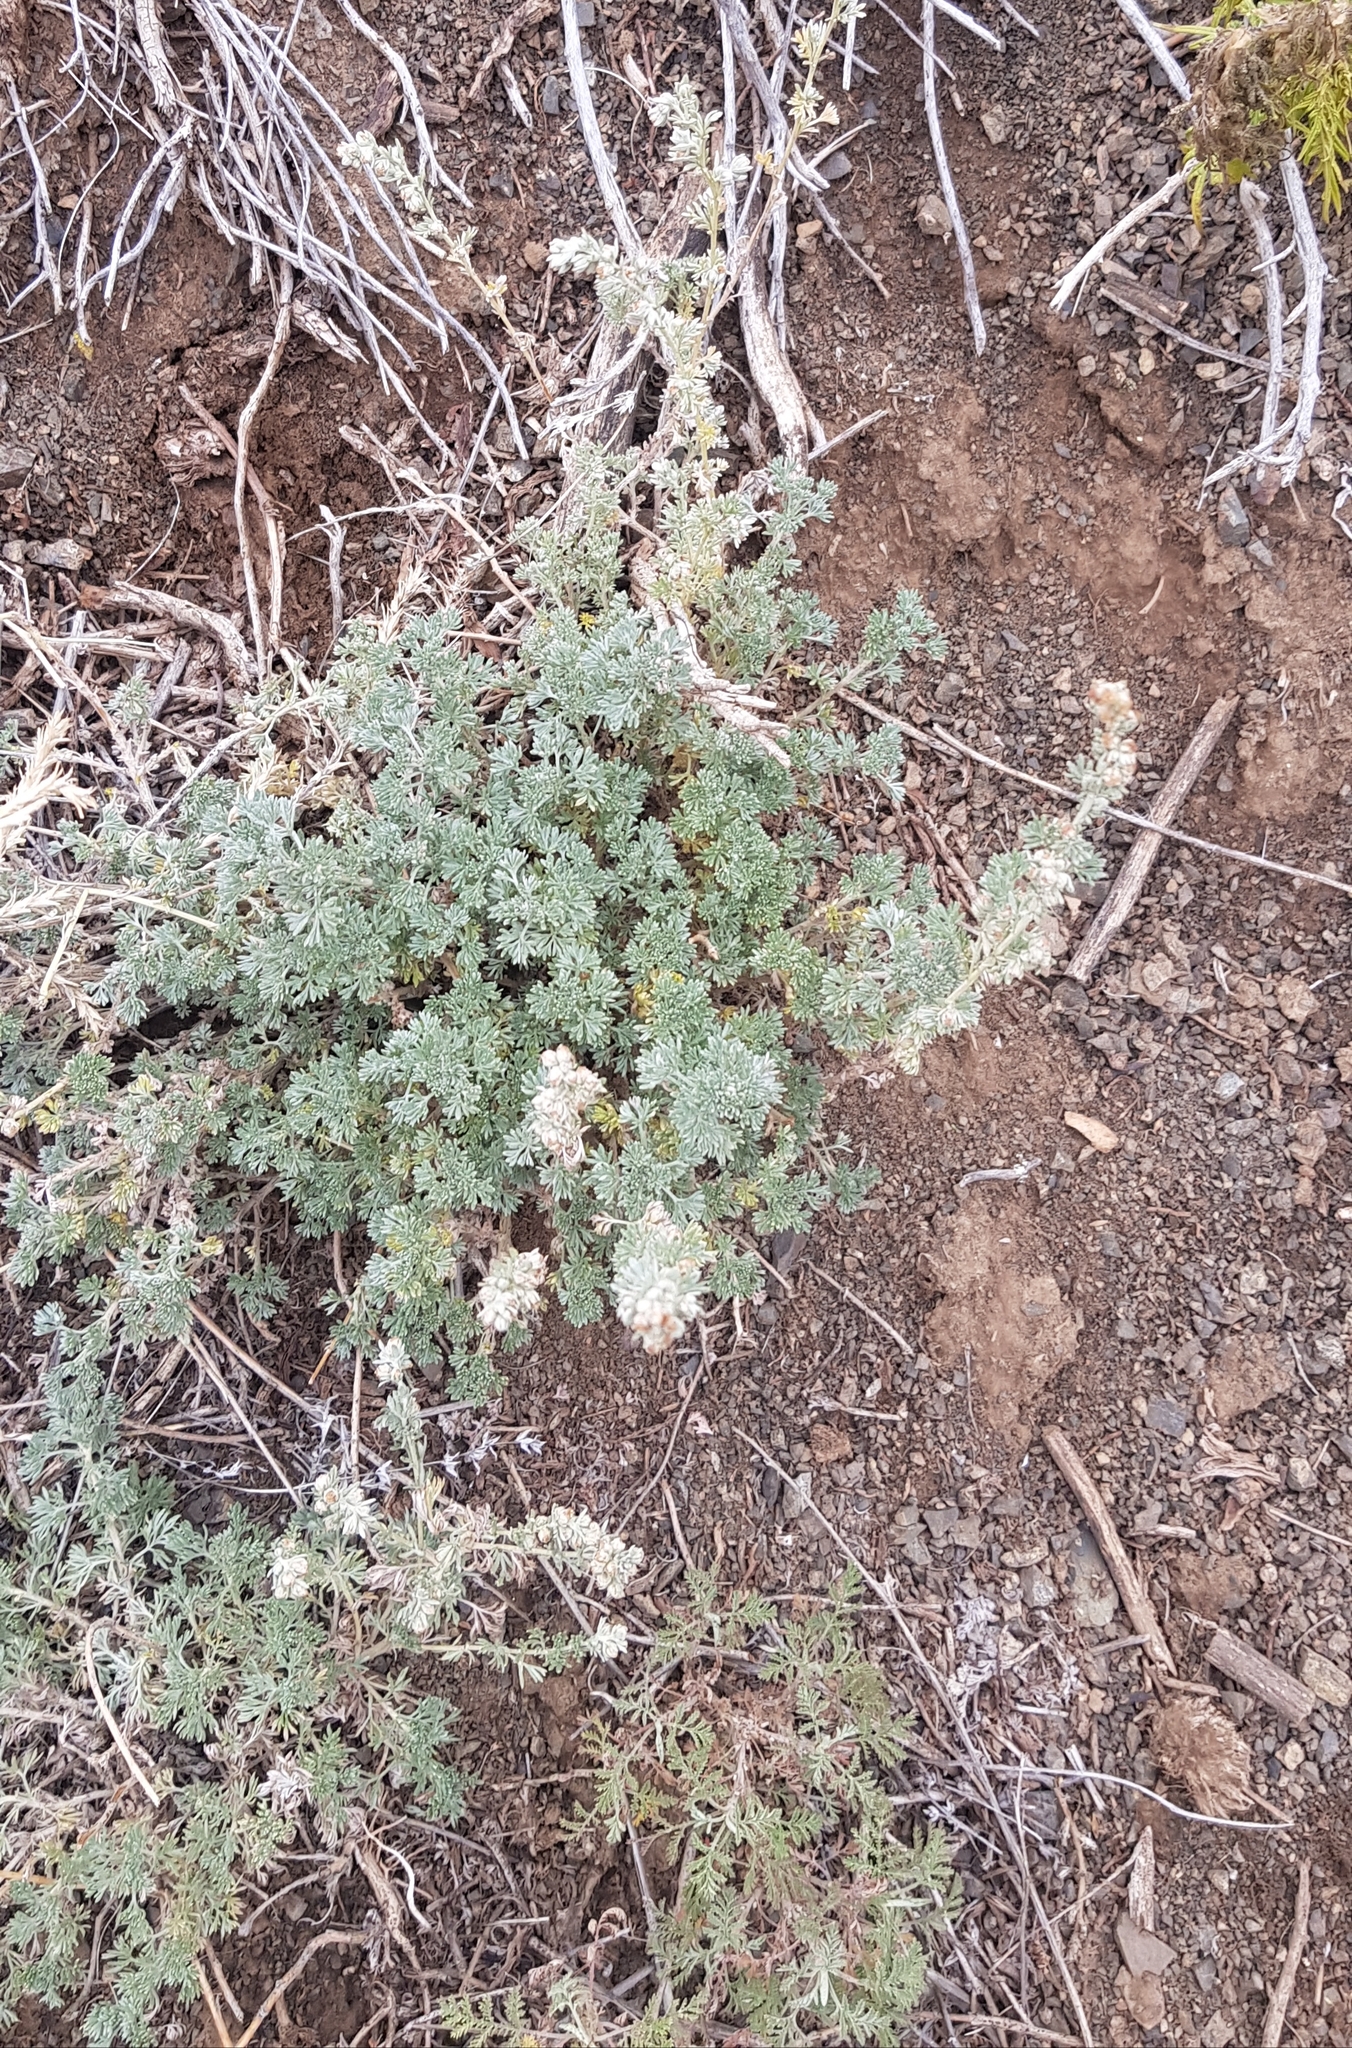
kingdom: Plantae
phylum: Tracheophyta
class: Magnoliopsida
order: Asterales
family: Asteraceae
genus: Artemisia
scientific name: Artemisia frigida
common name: Prairie sagewort
